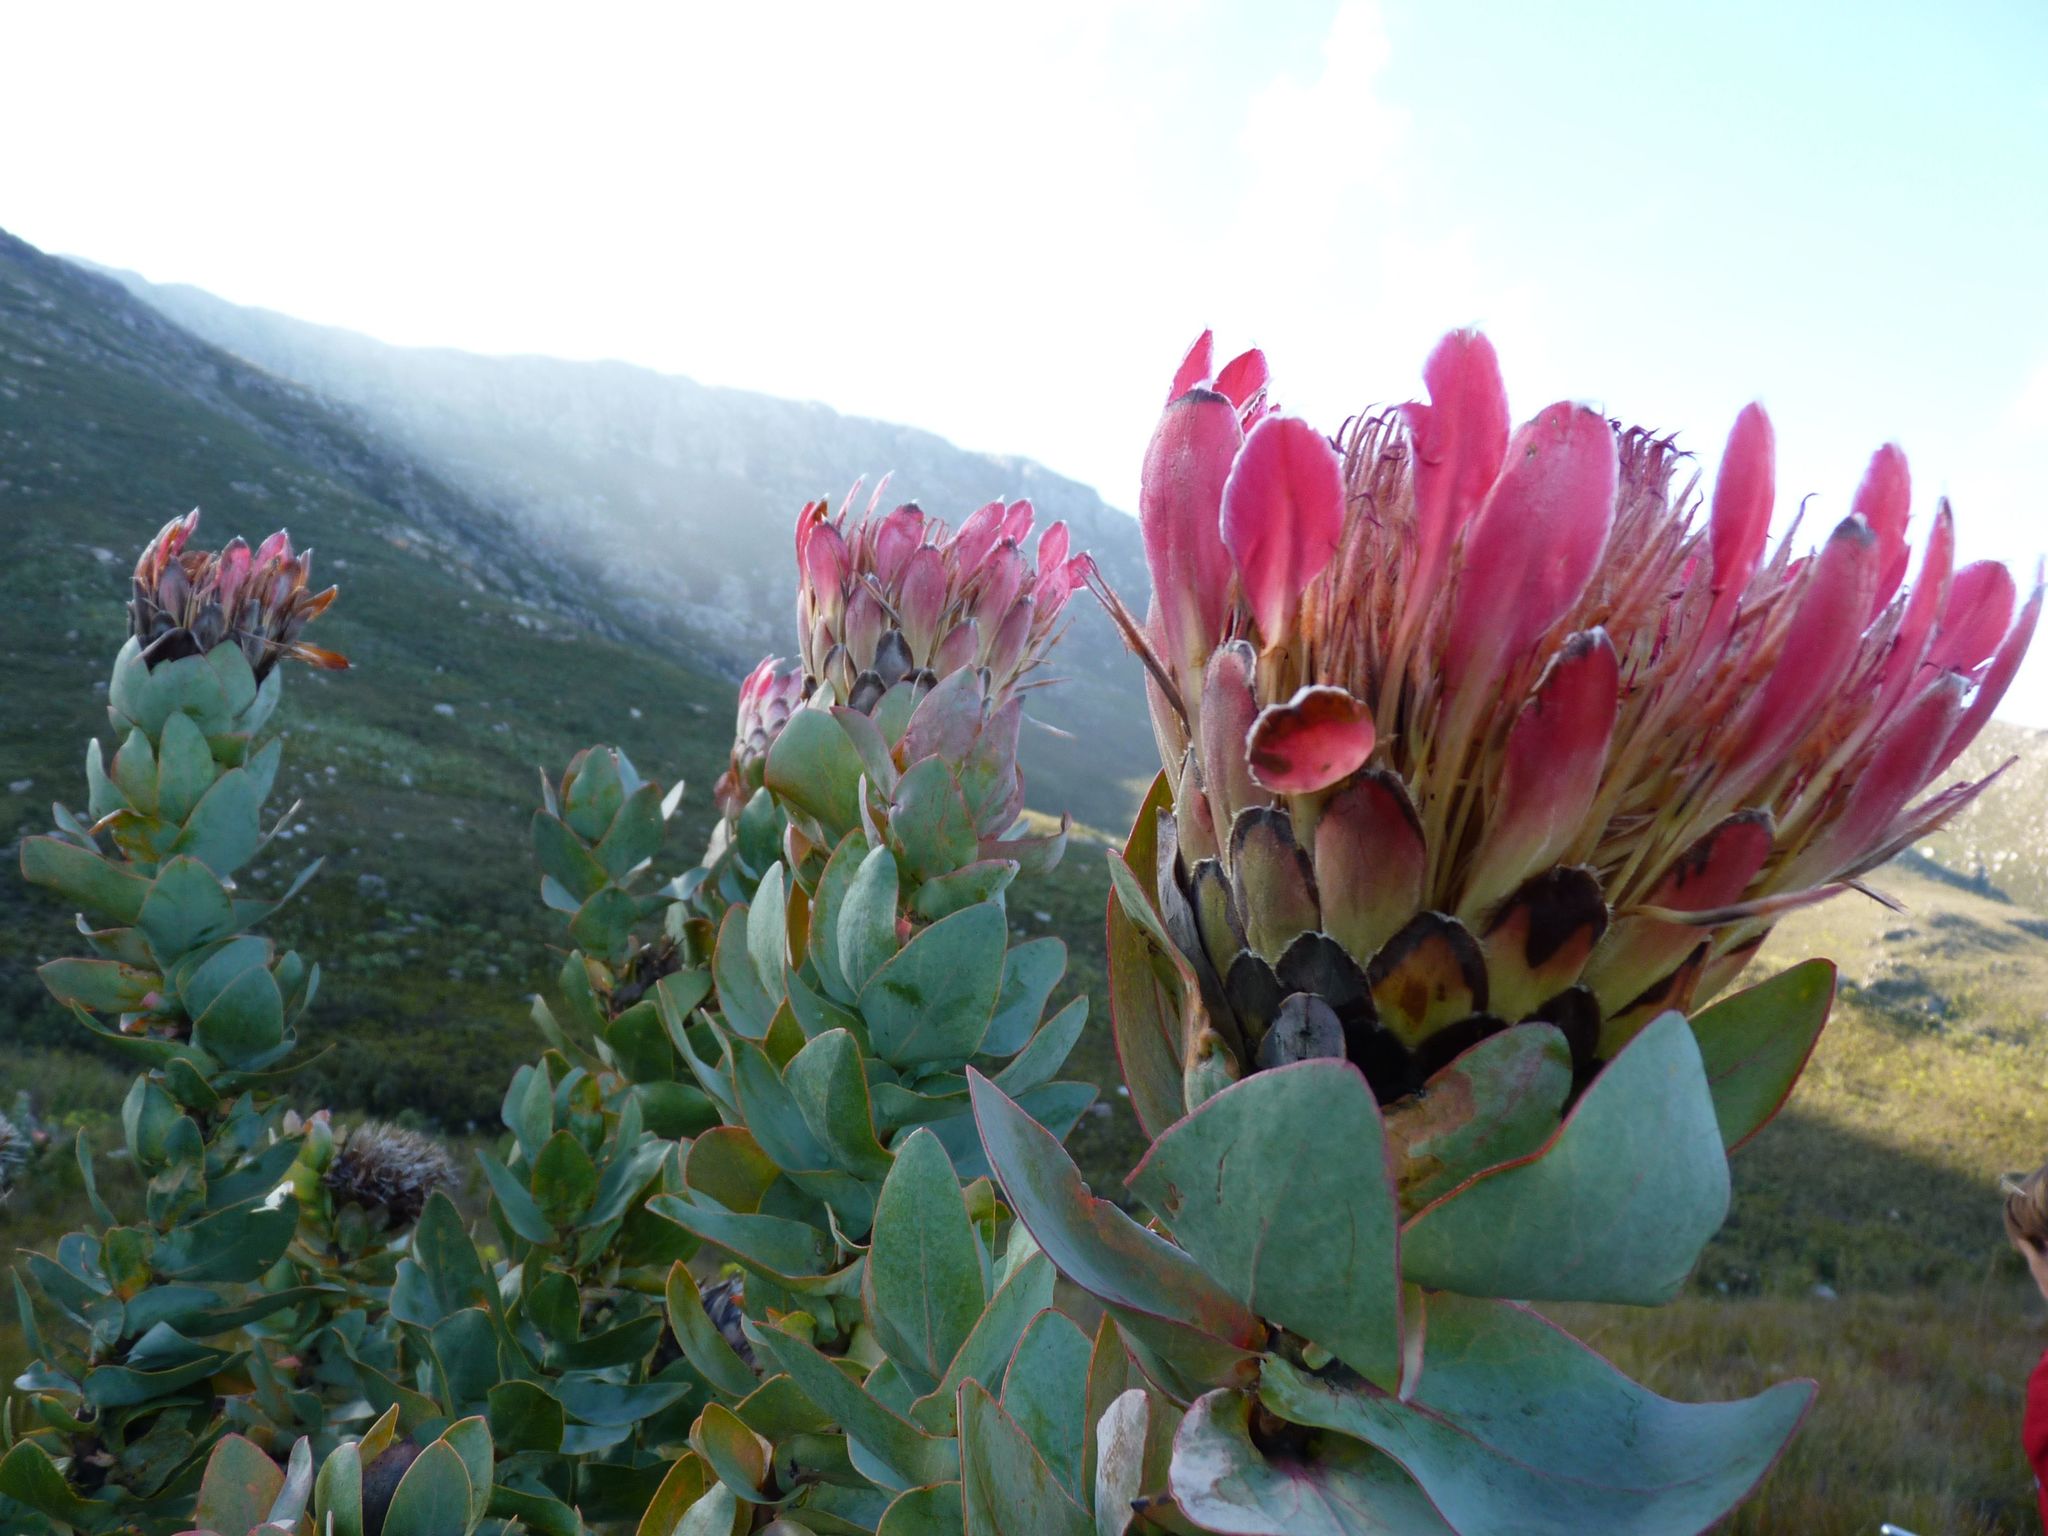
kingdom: Plantae
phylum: Tracheophyta
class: Magnoliopsida
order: Proteales
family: Proteaceae
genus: Protea
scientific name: Protea eximia
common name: Broad-leaved sugarbush
